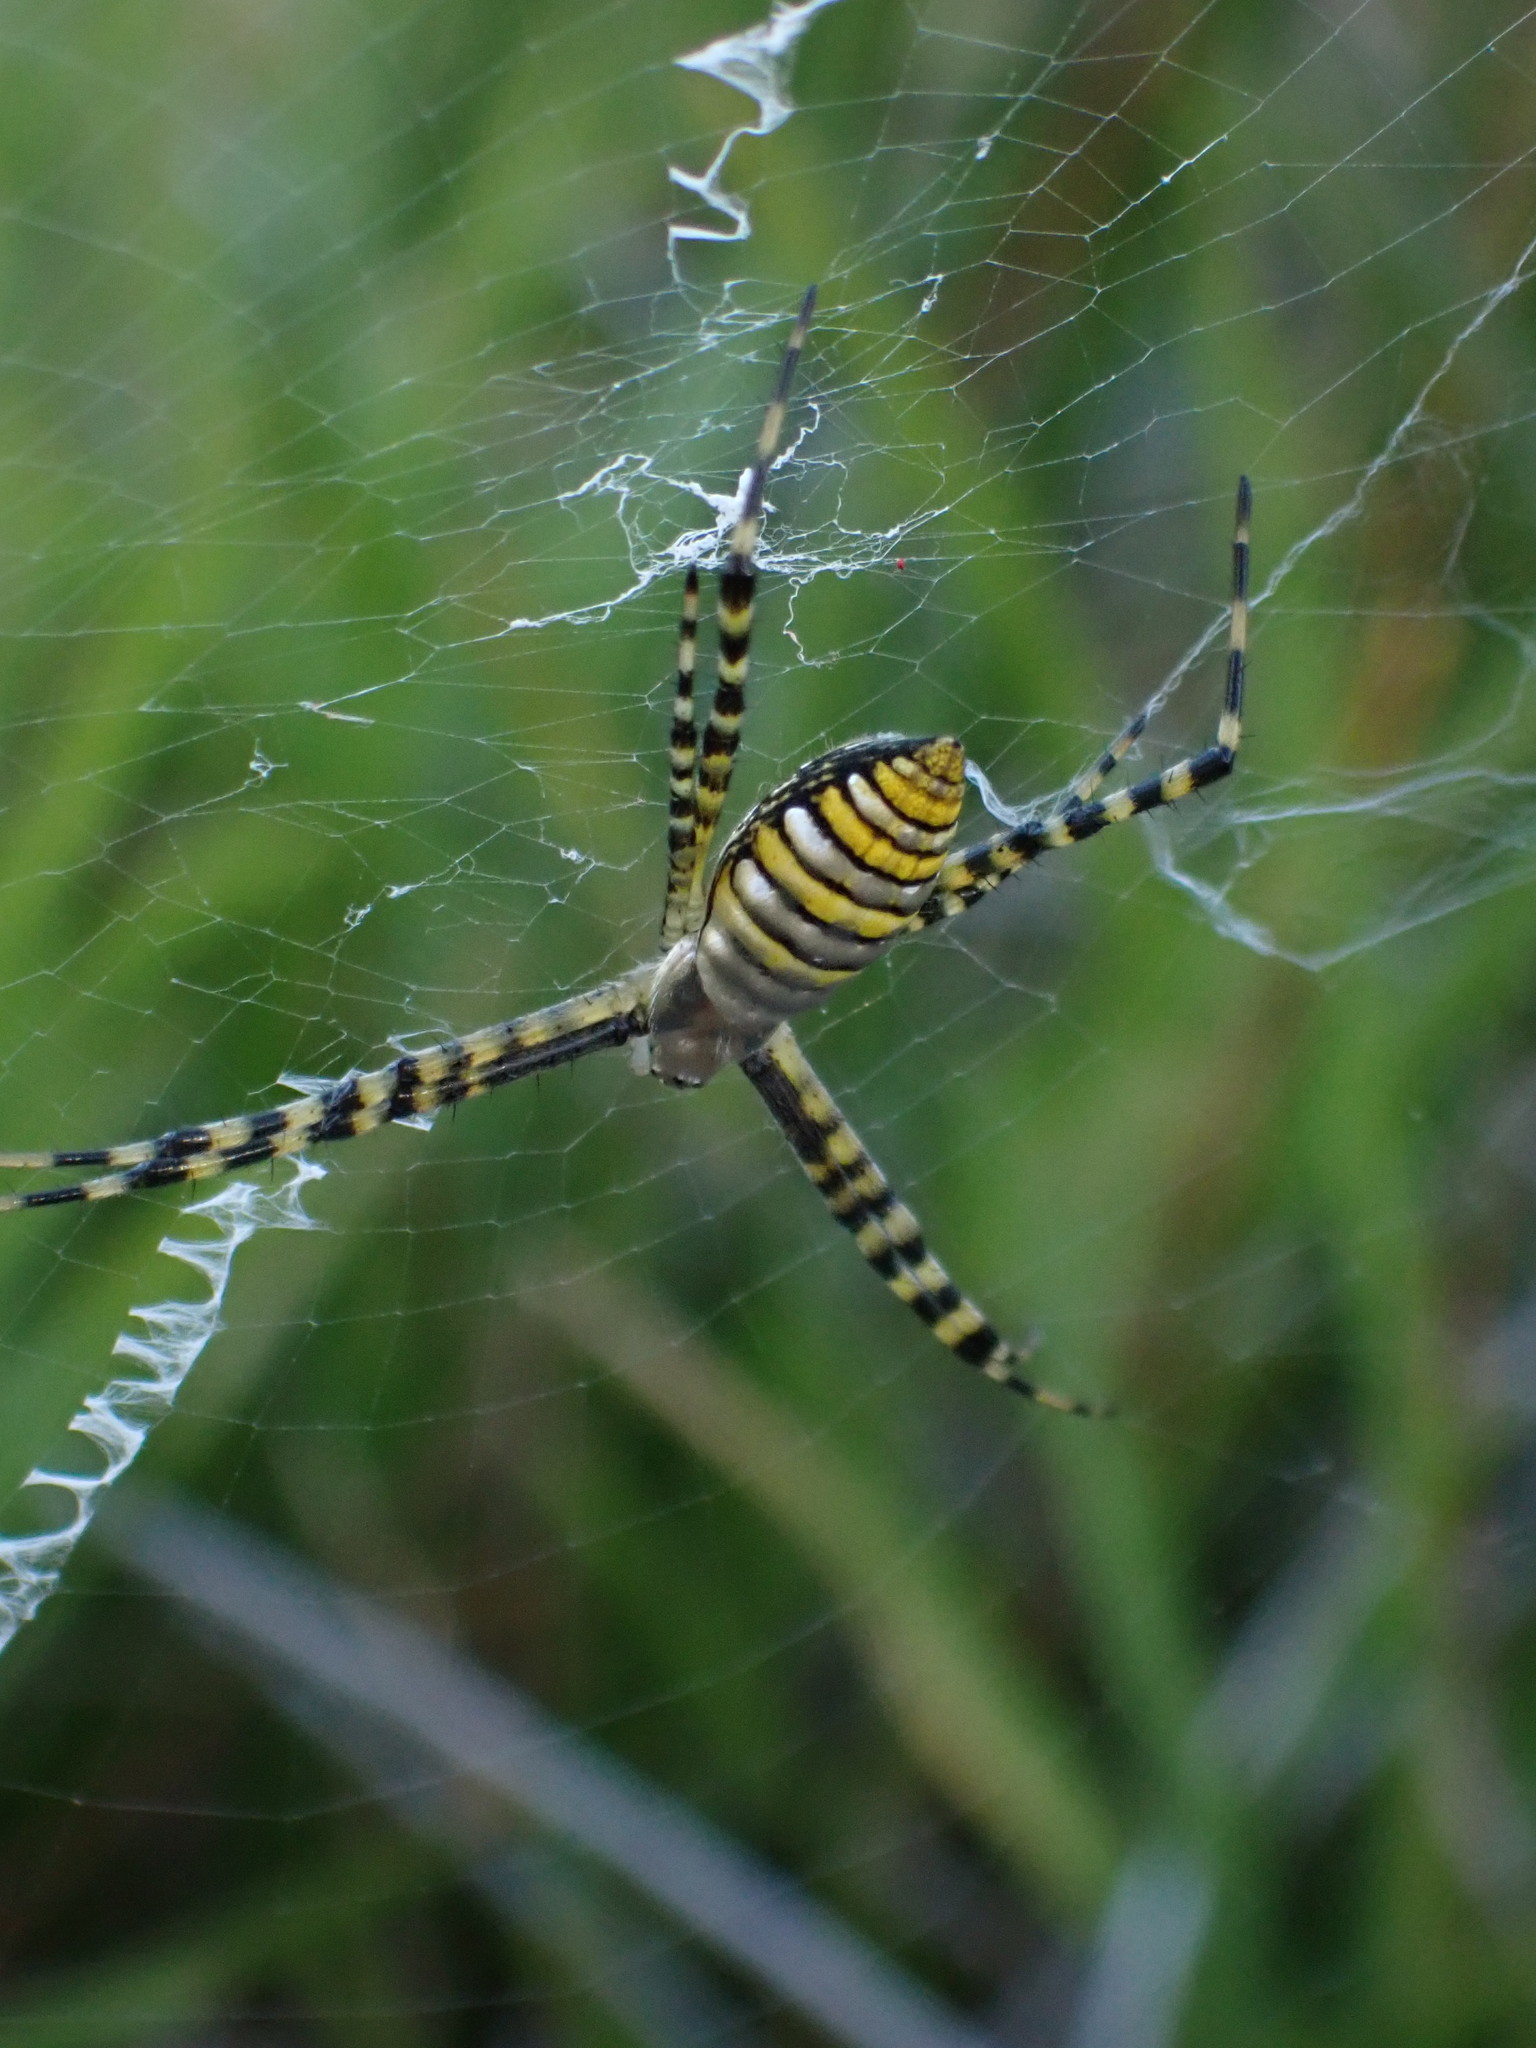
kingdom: Animalia
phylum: Arthropoda
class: Arachnida
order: Araneae
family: Araneidae
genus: Argiope
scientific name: Argiope trifasciata
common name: Banded garden spider
